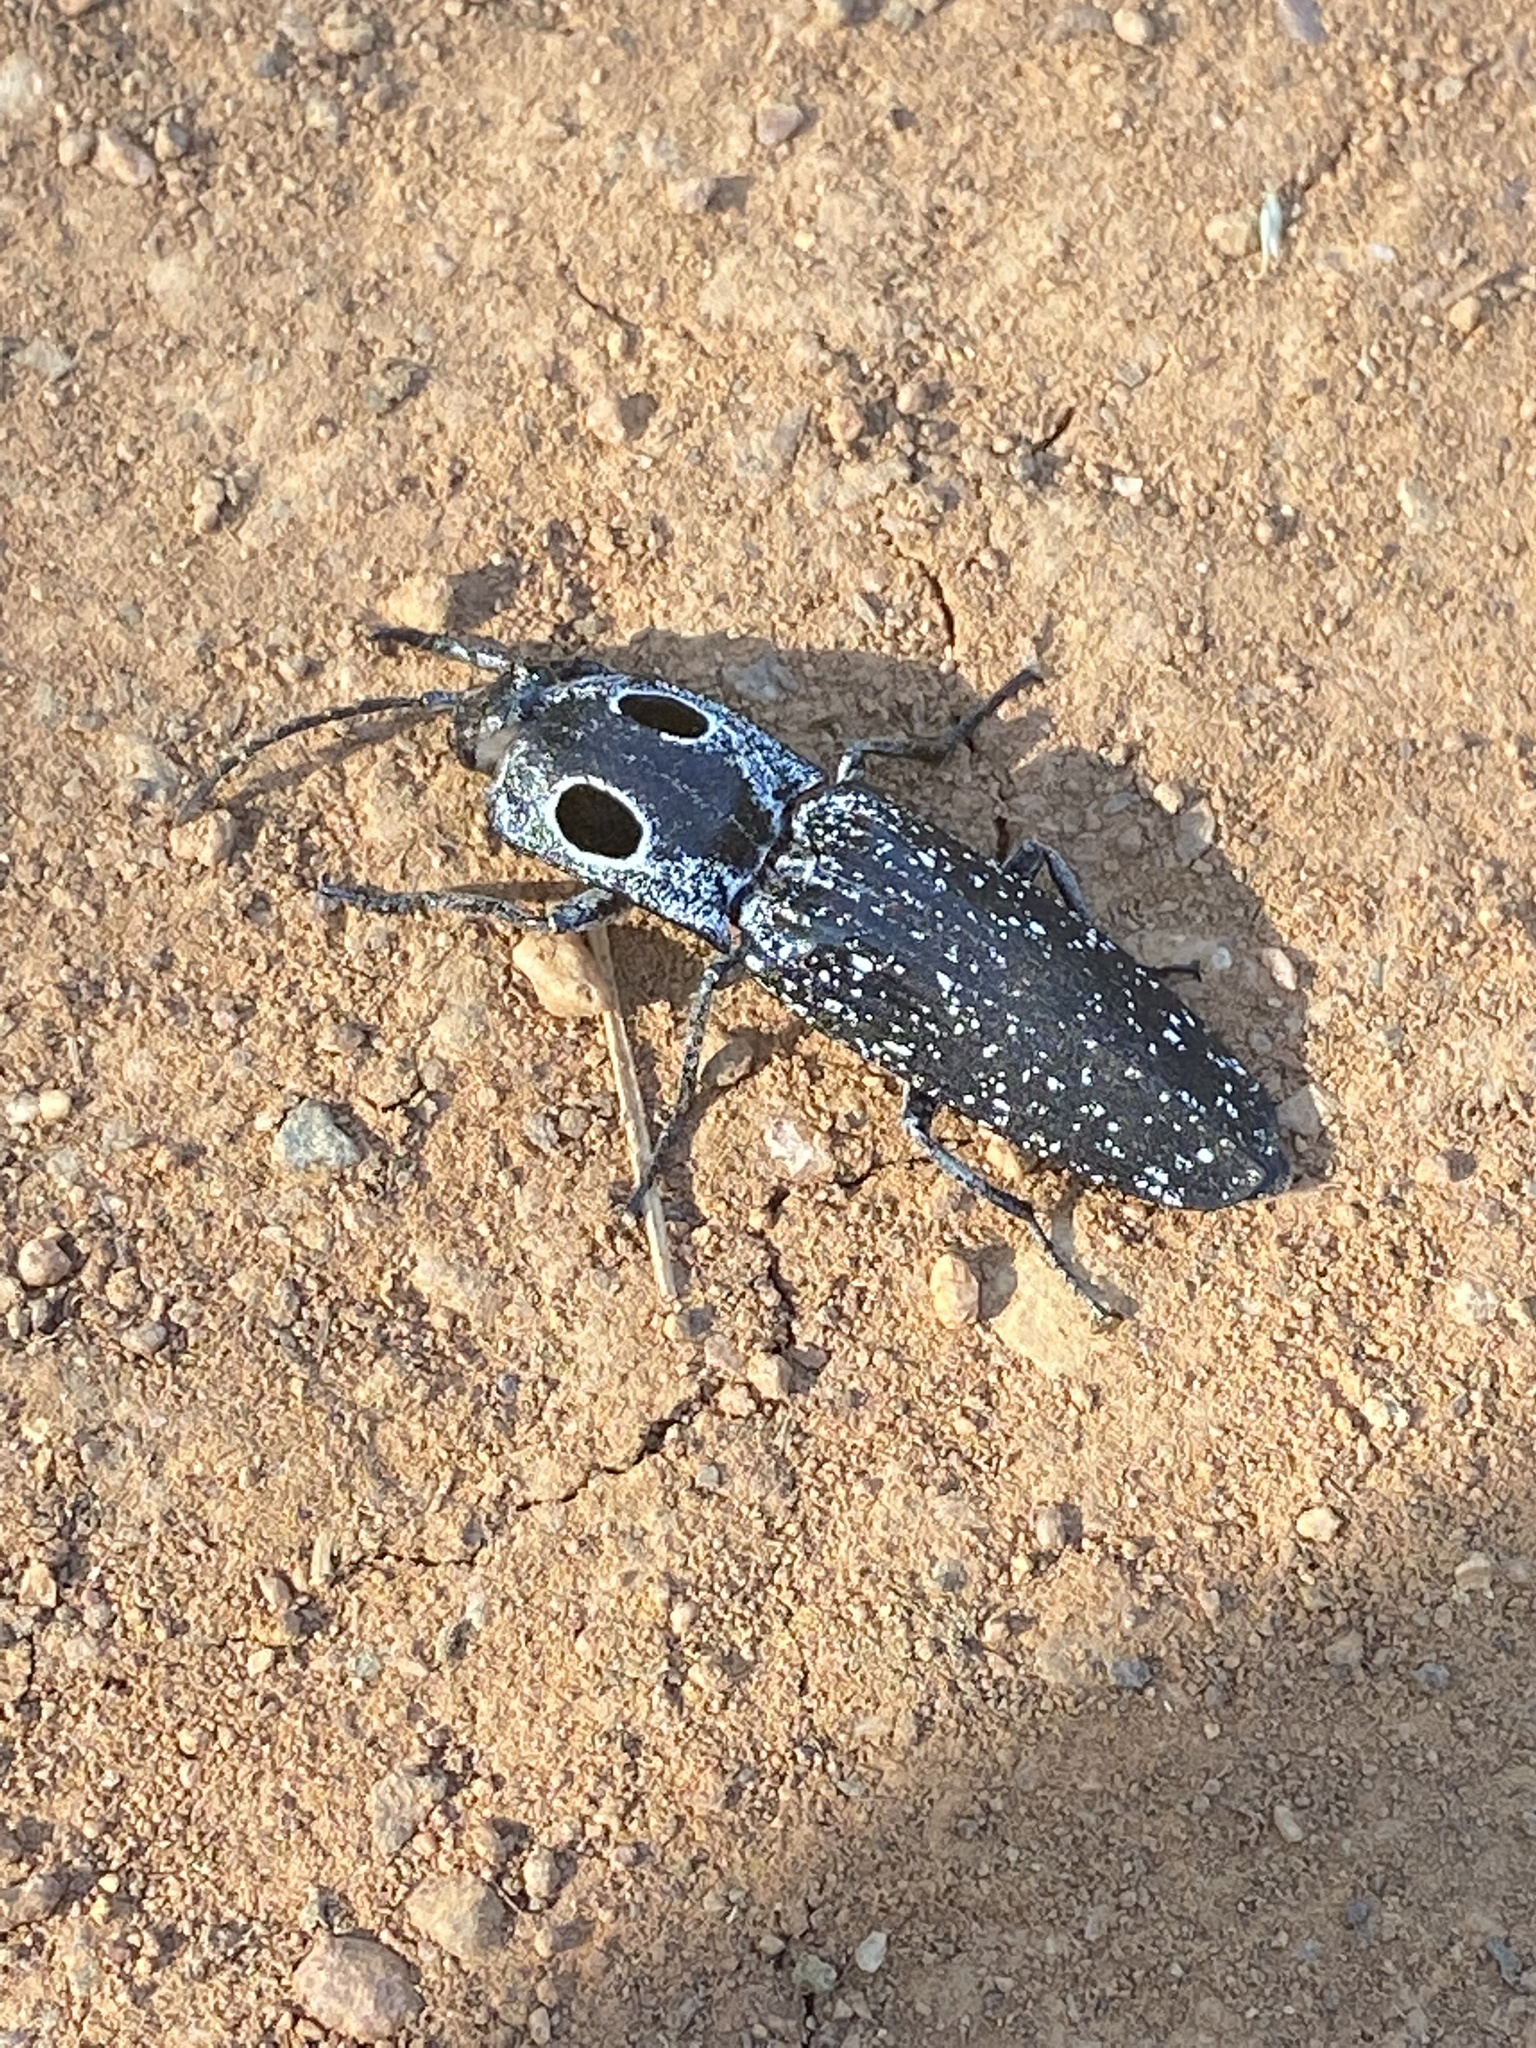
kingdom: Animalia
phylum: Arthropoda
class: Insecta
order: Coleoptera
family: Elateridae
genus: Alaus
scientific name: Alaus oculatus
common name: Eastern eyed click beetle
